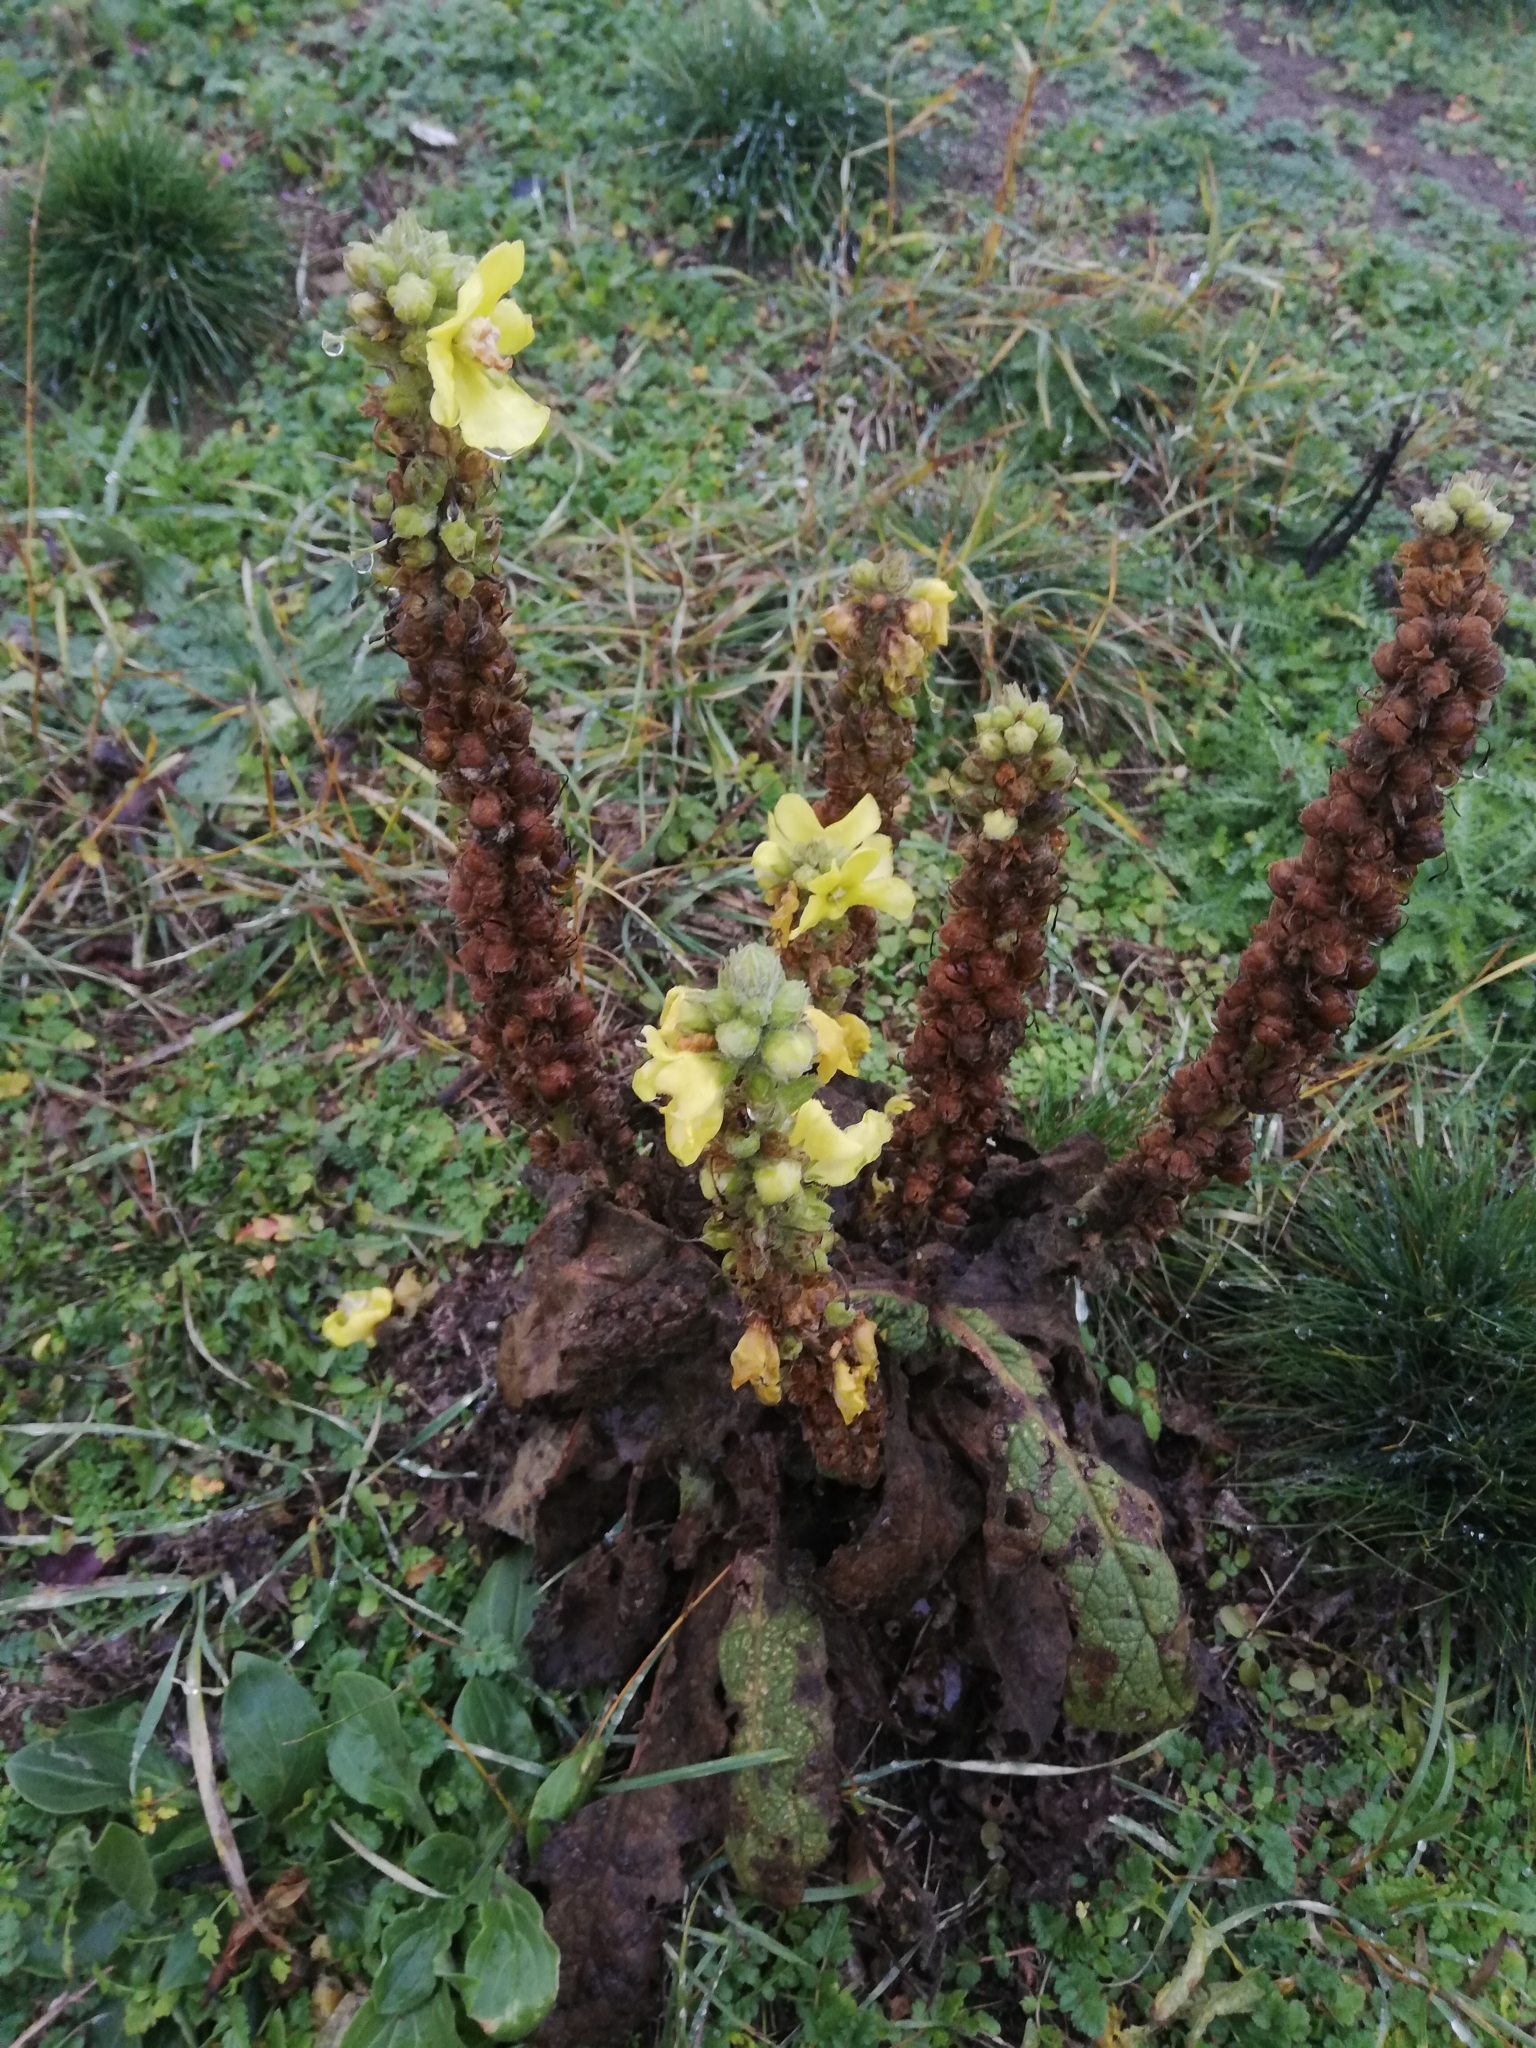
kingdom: Plantae
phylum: Tracheophyta
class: Magnoliopsida
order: Lamiales
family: Scrophulariaceae
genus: Verbascum
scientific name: Verbascum thapsus
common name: Common mullein
